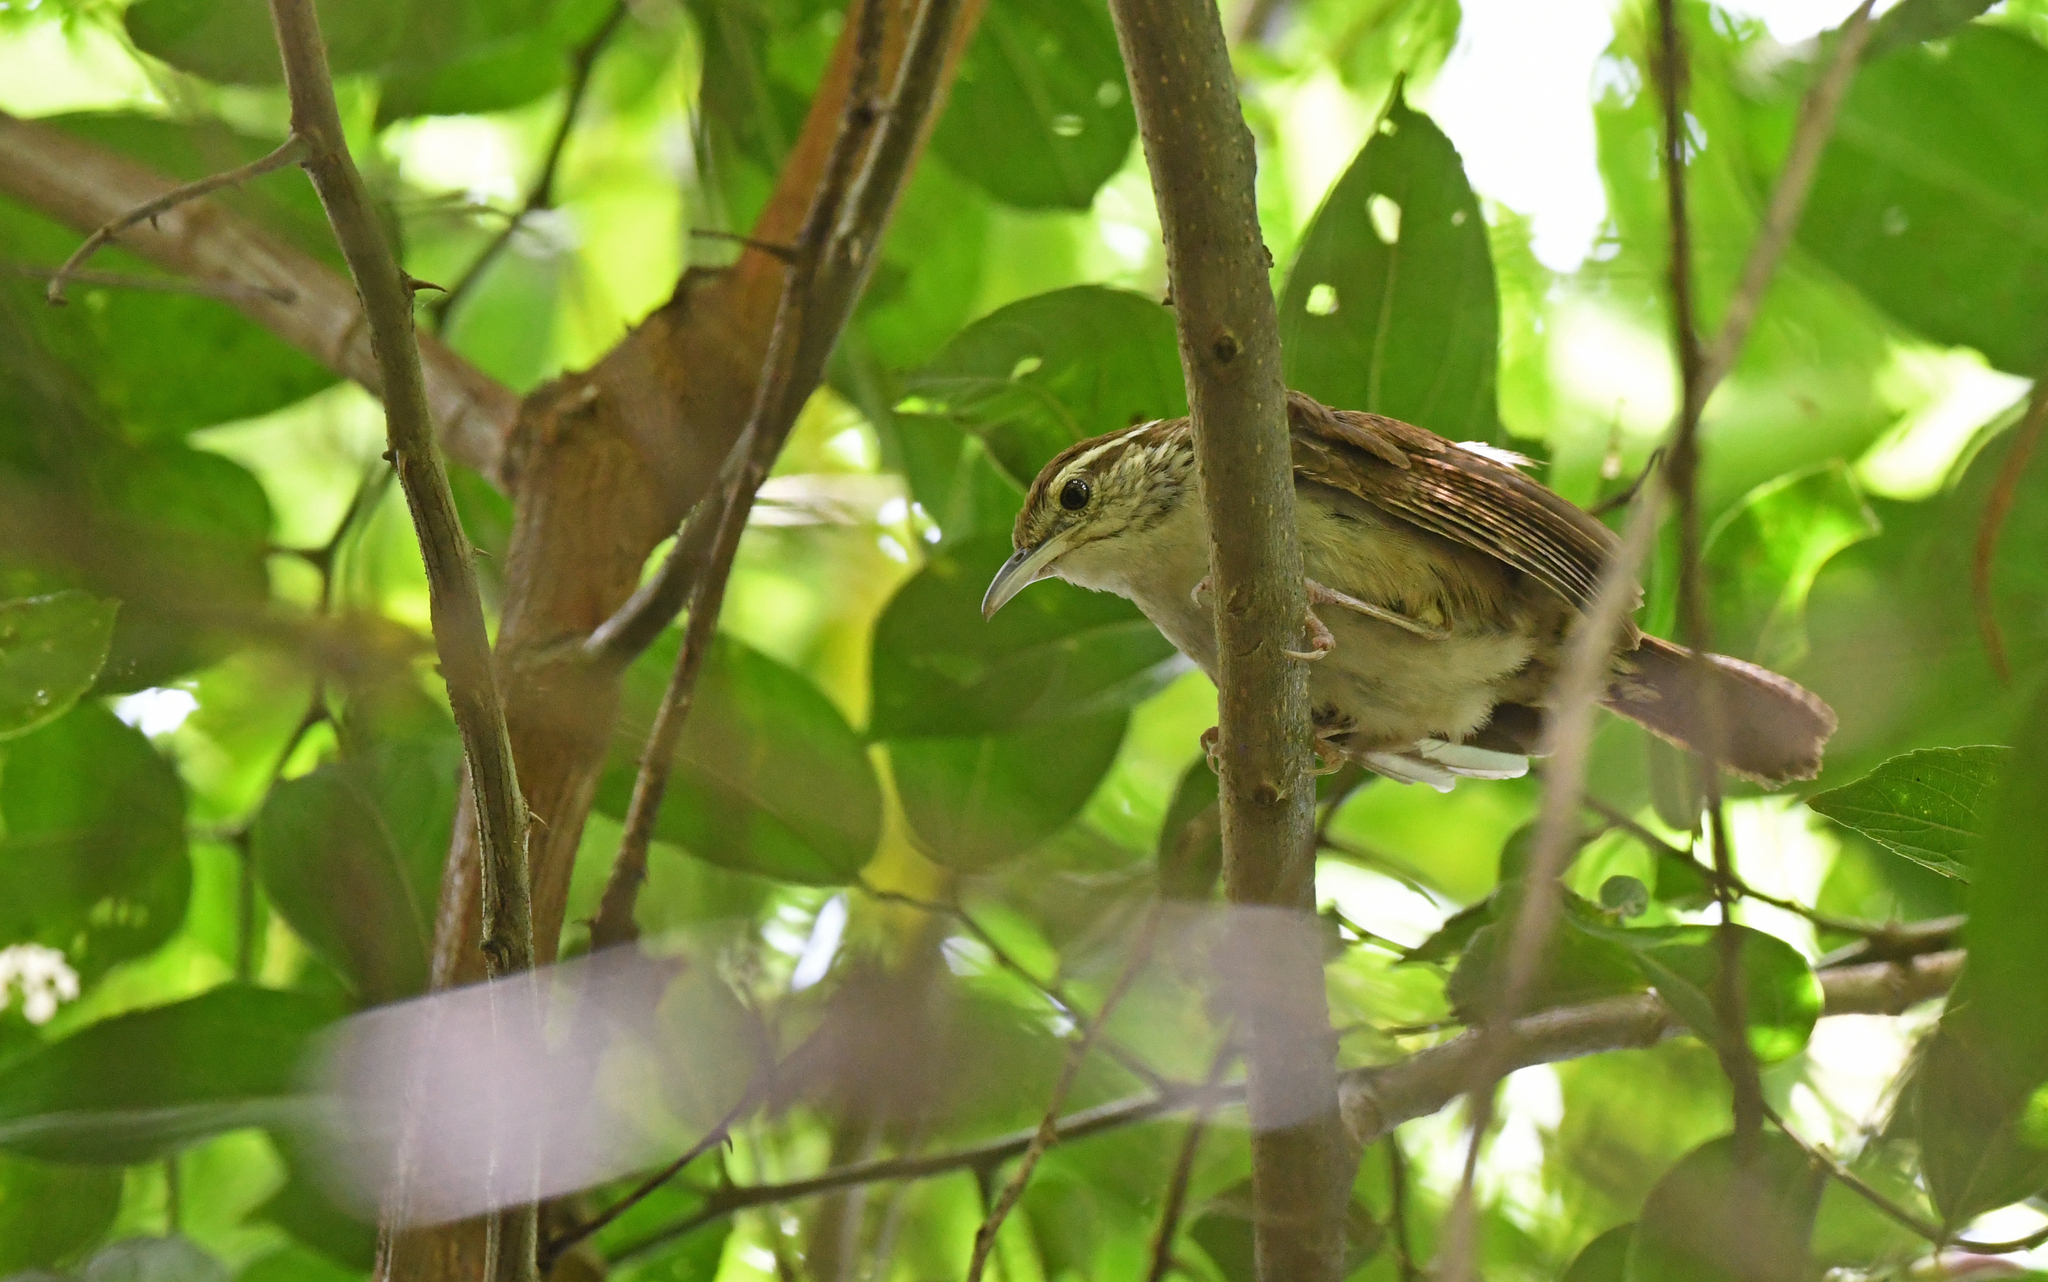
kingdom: Animalia
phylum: Chordata
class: Aves
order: Passeriformes
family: Troglodytidae
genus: Thryophilus
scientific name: Thryophilus sernai
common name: Antioquia wren
